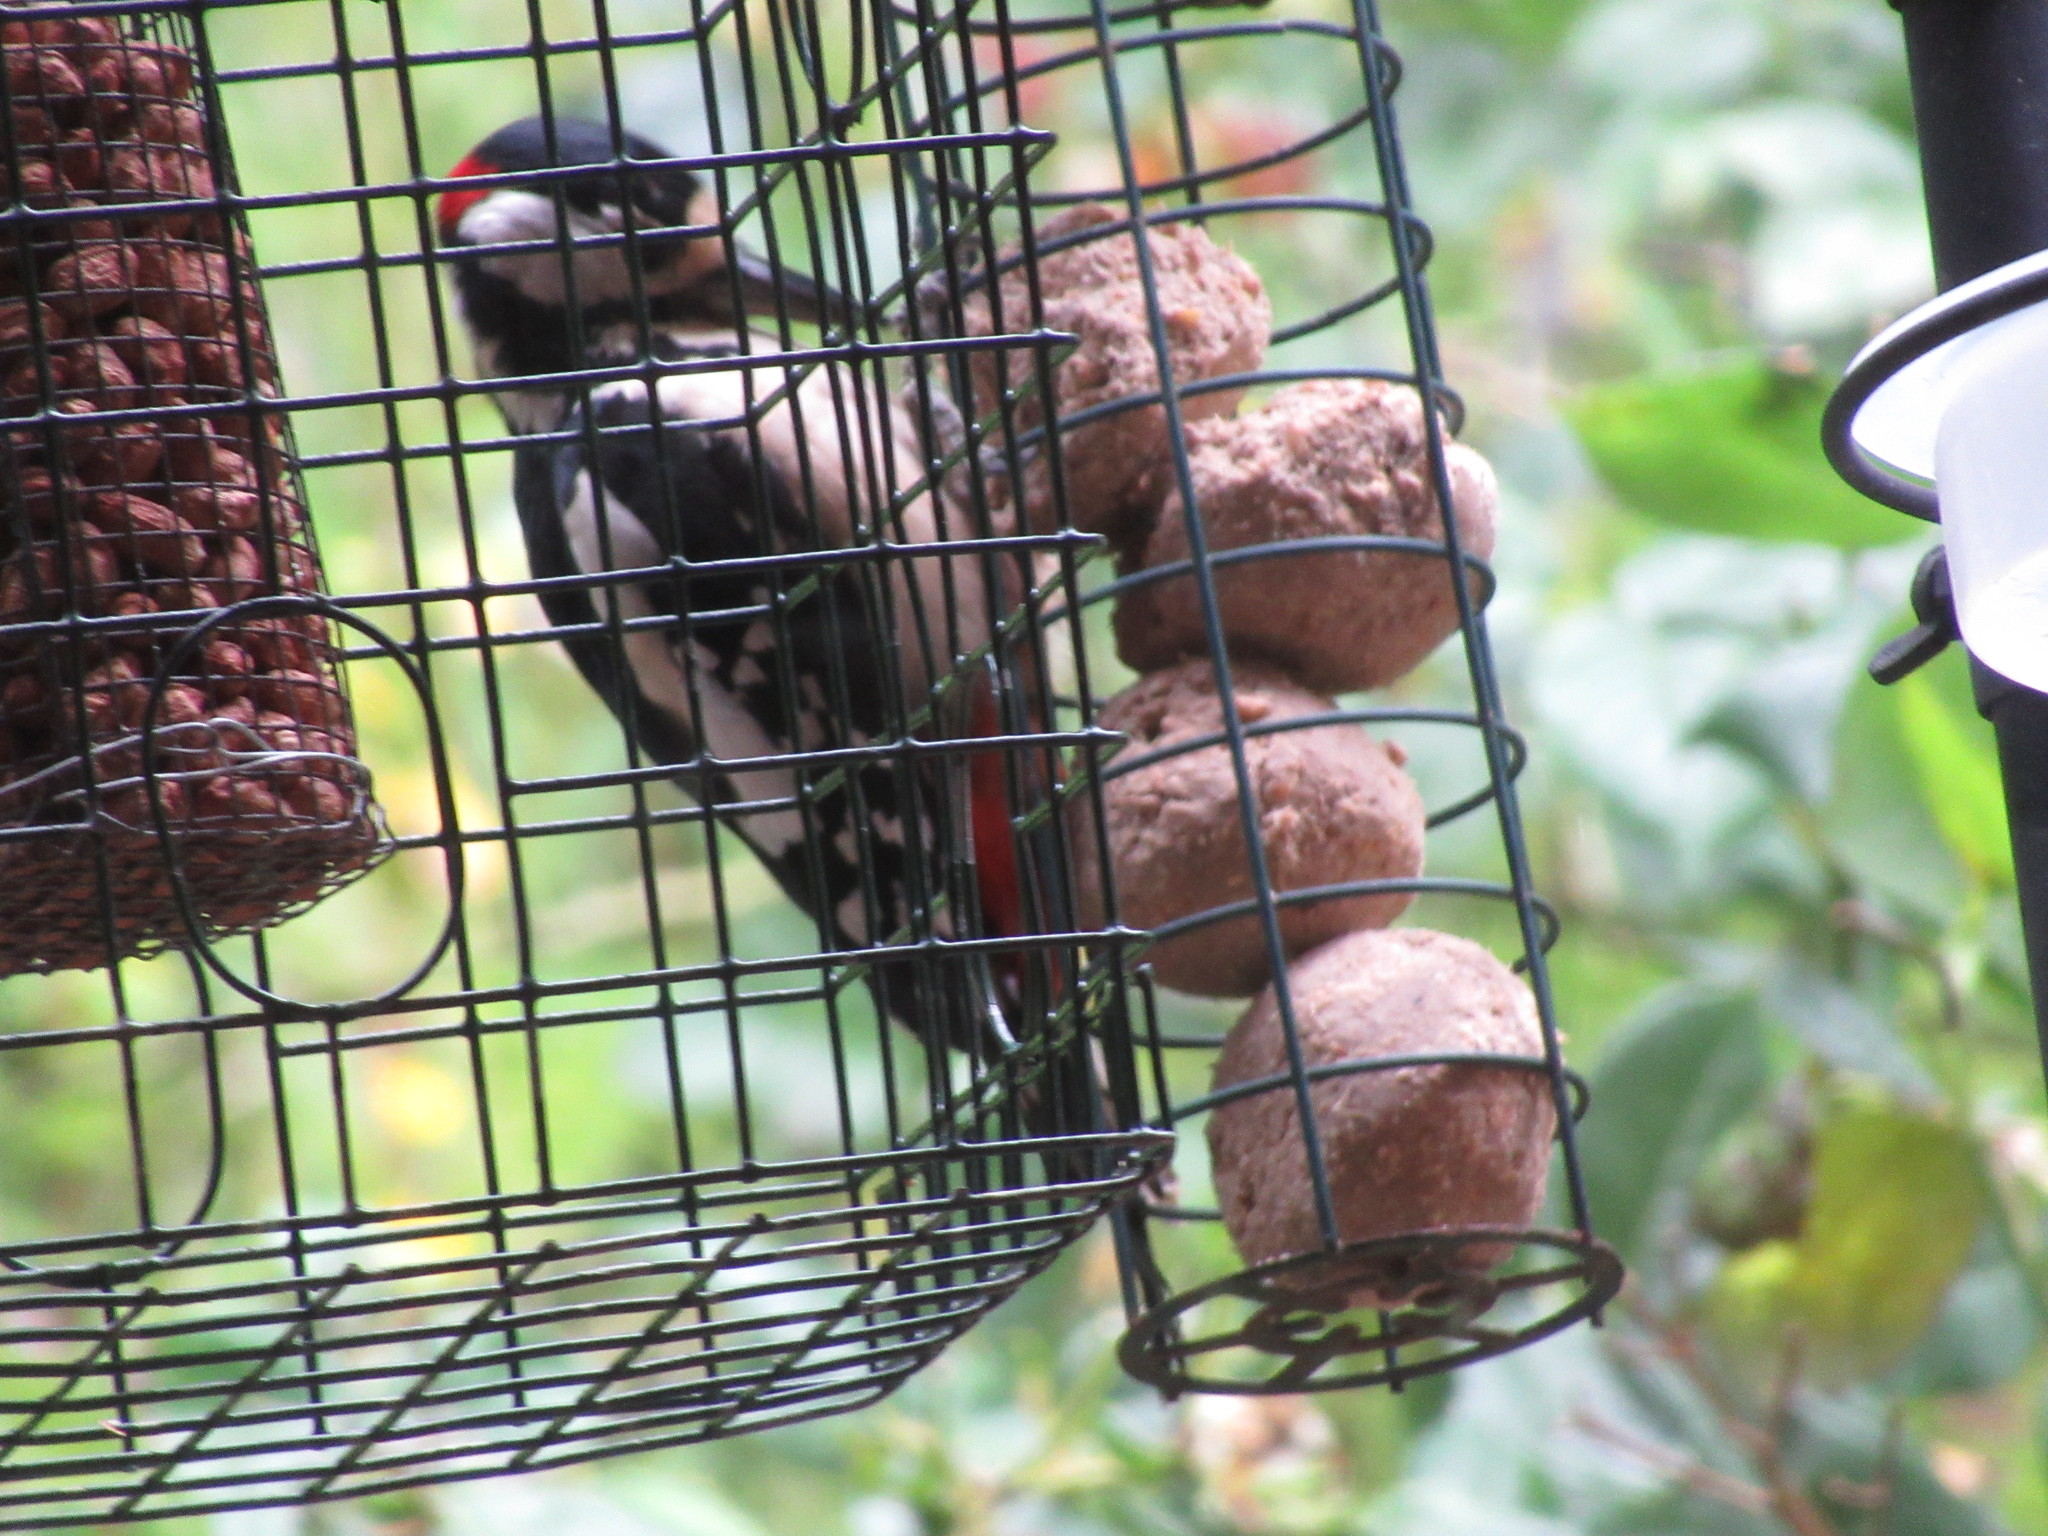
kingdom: Animalia
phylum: Chordata
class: Aves
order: Piciformes
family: Picidae
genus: Dendrocopos
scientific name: Dendrocopos major
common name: Great spotted woodpecker
